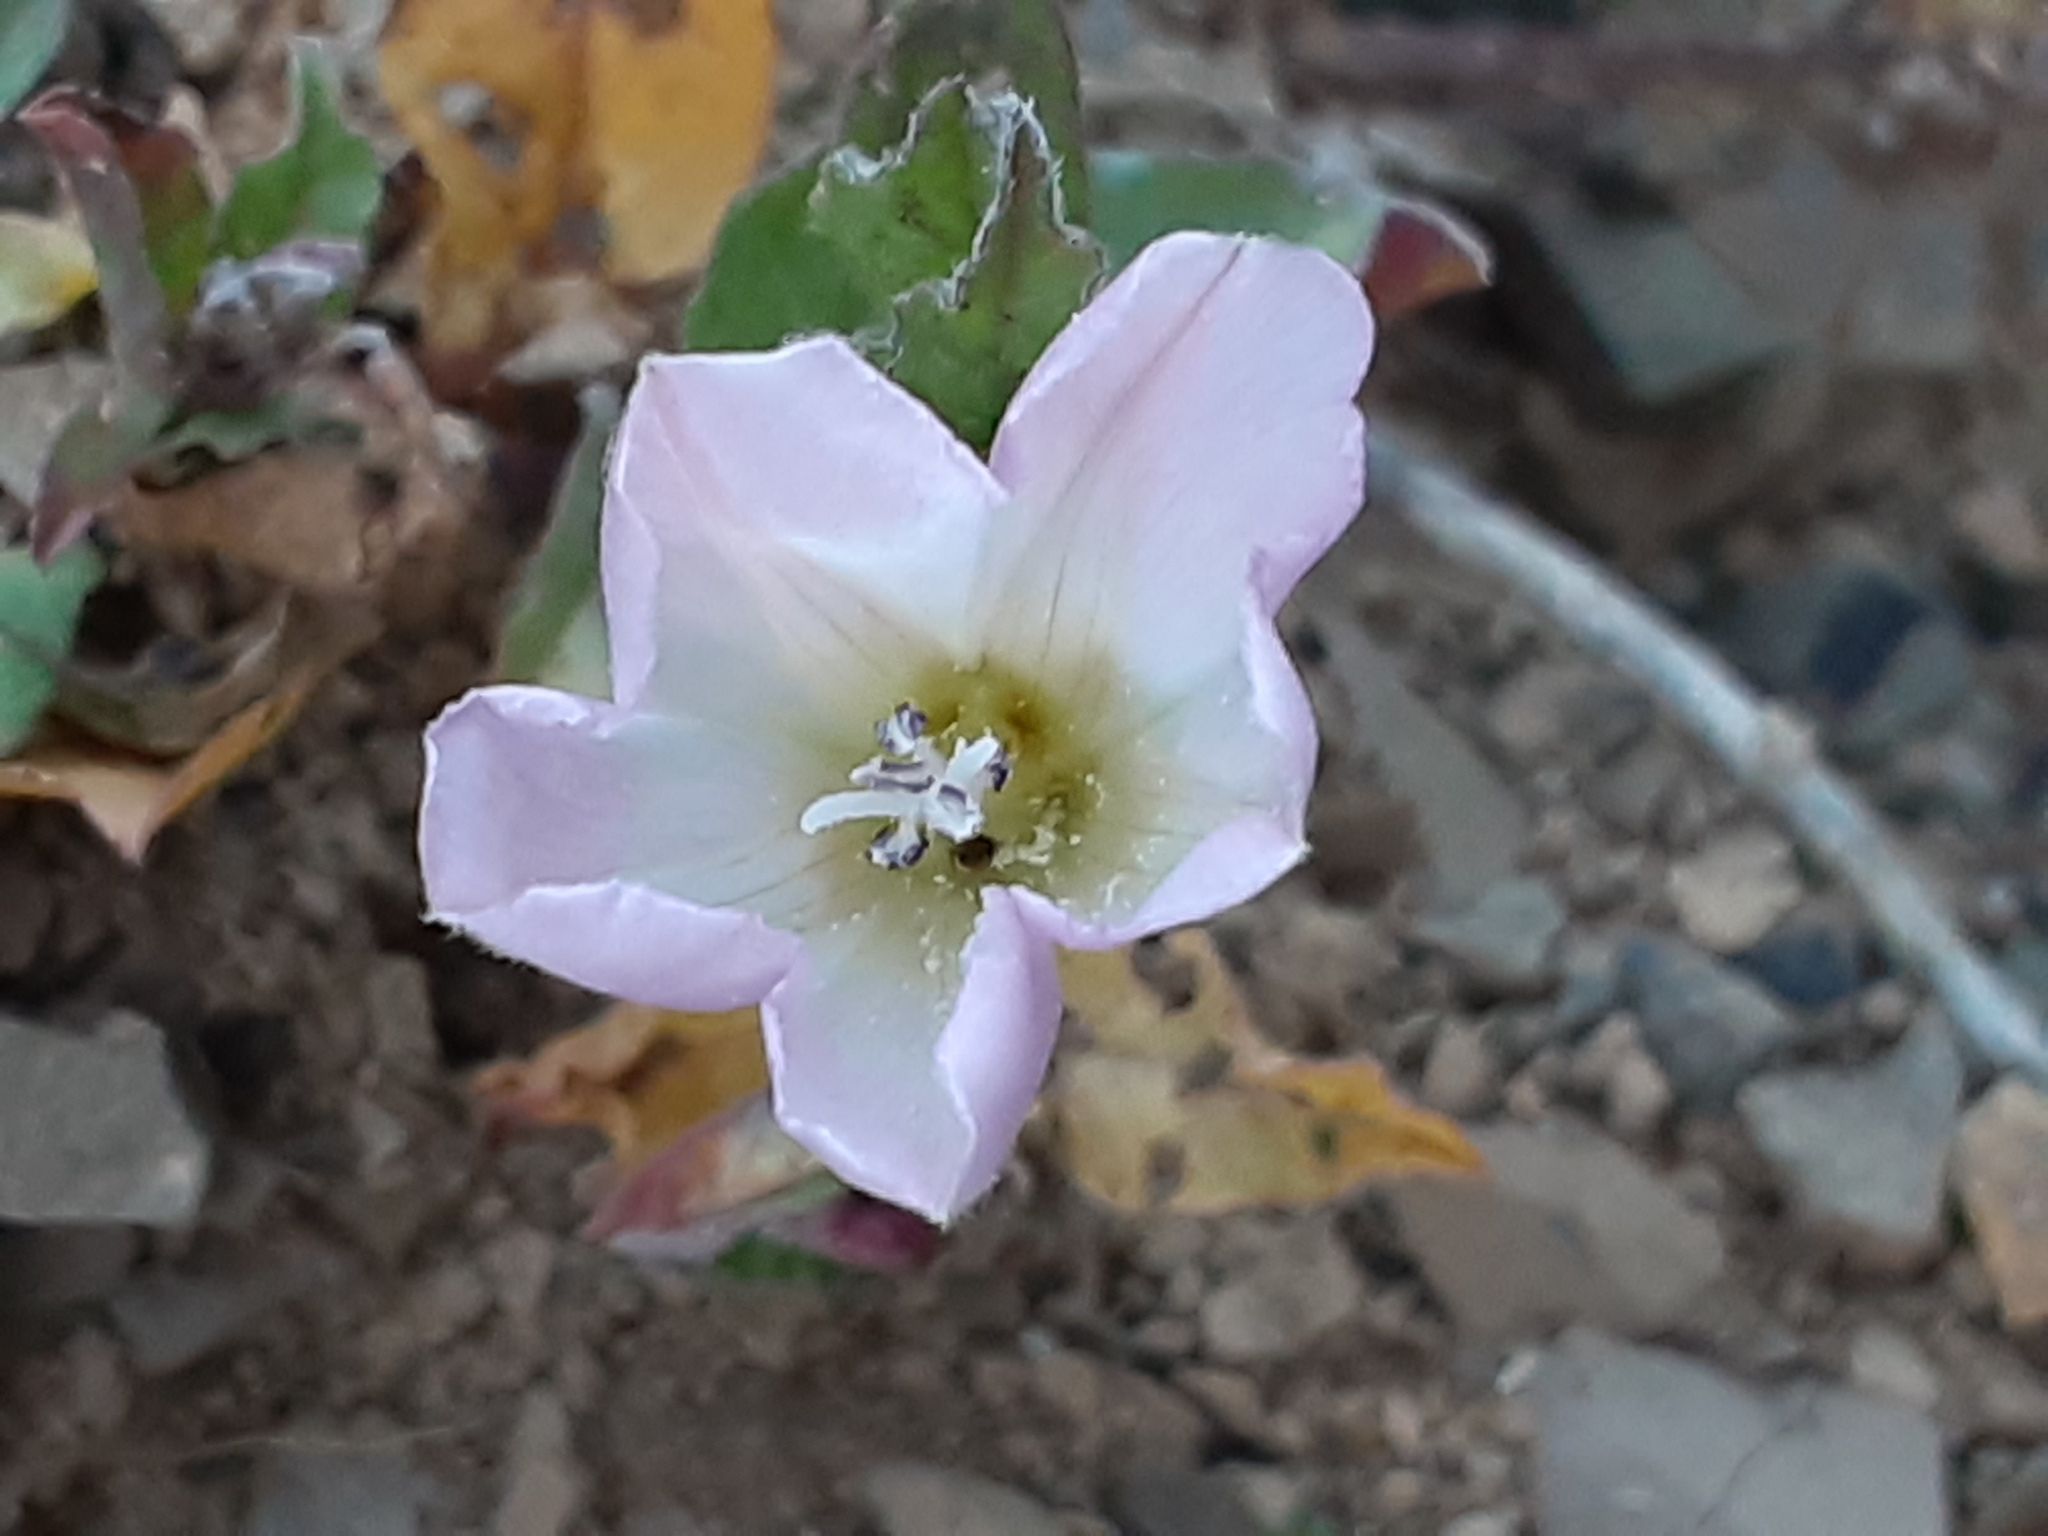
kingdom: Plantae
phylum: Tracheophyta
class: Magnoliopsida
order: Solanales
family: Convolvulaceae
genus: Convolvulus
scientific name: Convolvulus arvensis
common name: Field bindweed
